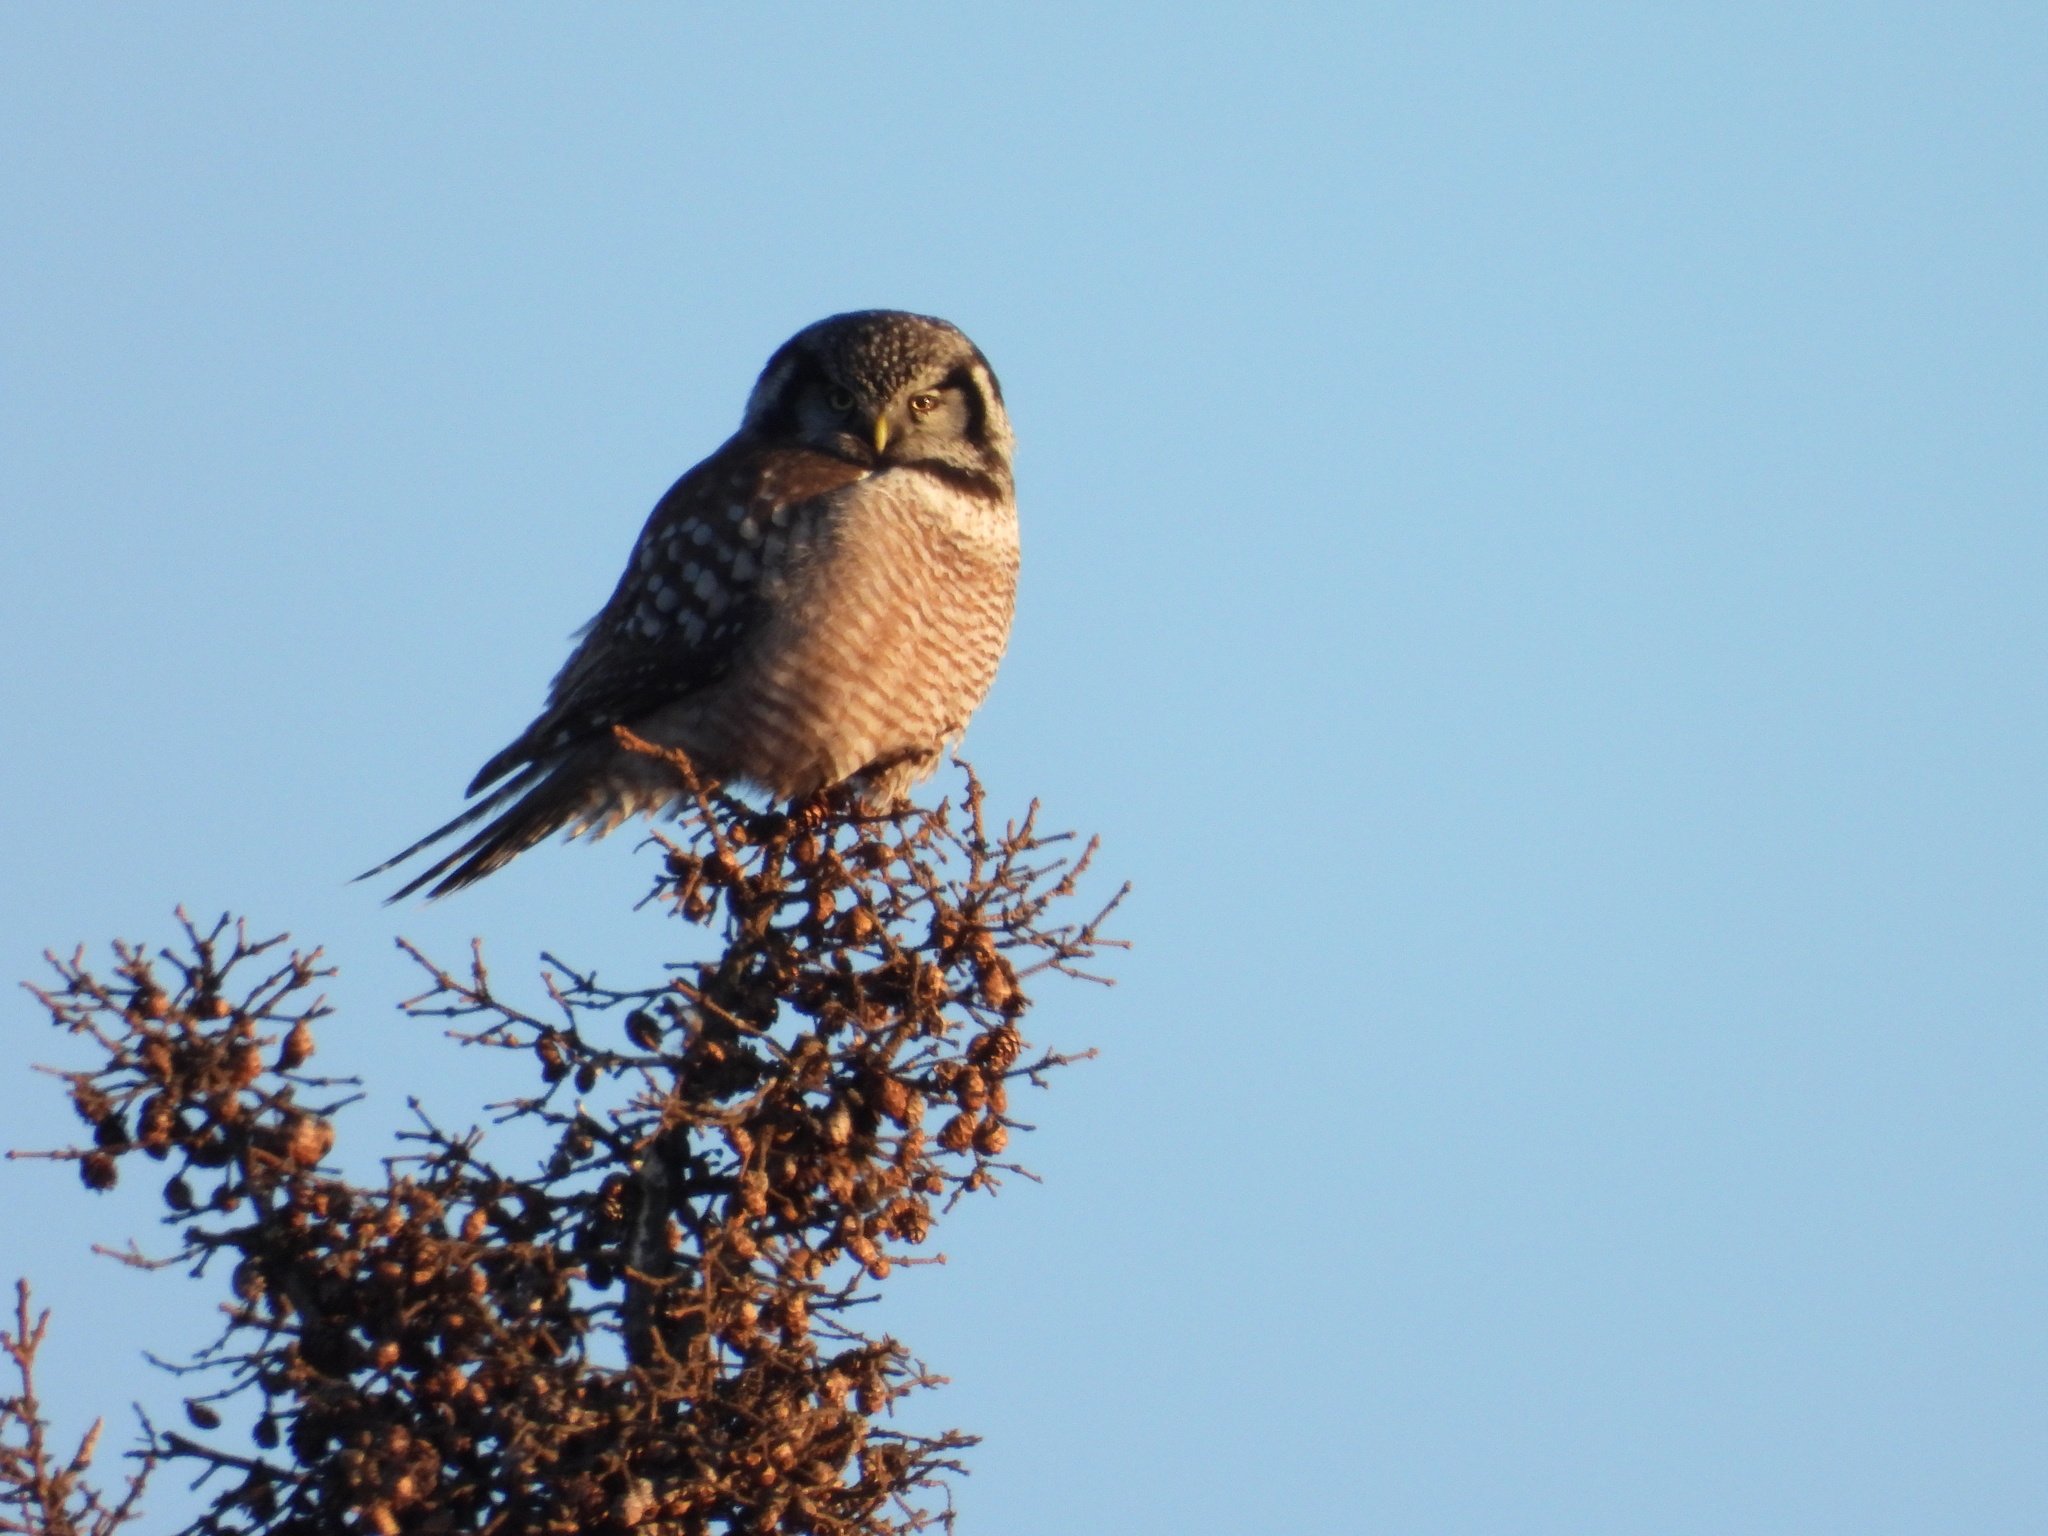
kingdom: Animalia
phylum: Chordata
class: Aves
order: Strigiformes
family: Strigidae
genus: Surnia
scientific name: Surnia ulula
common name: Northern hawk-owl
